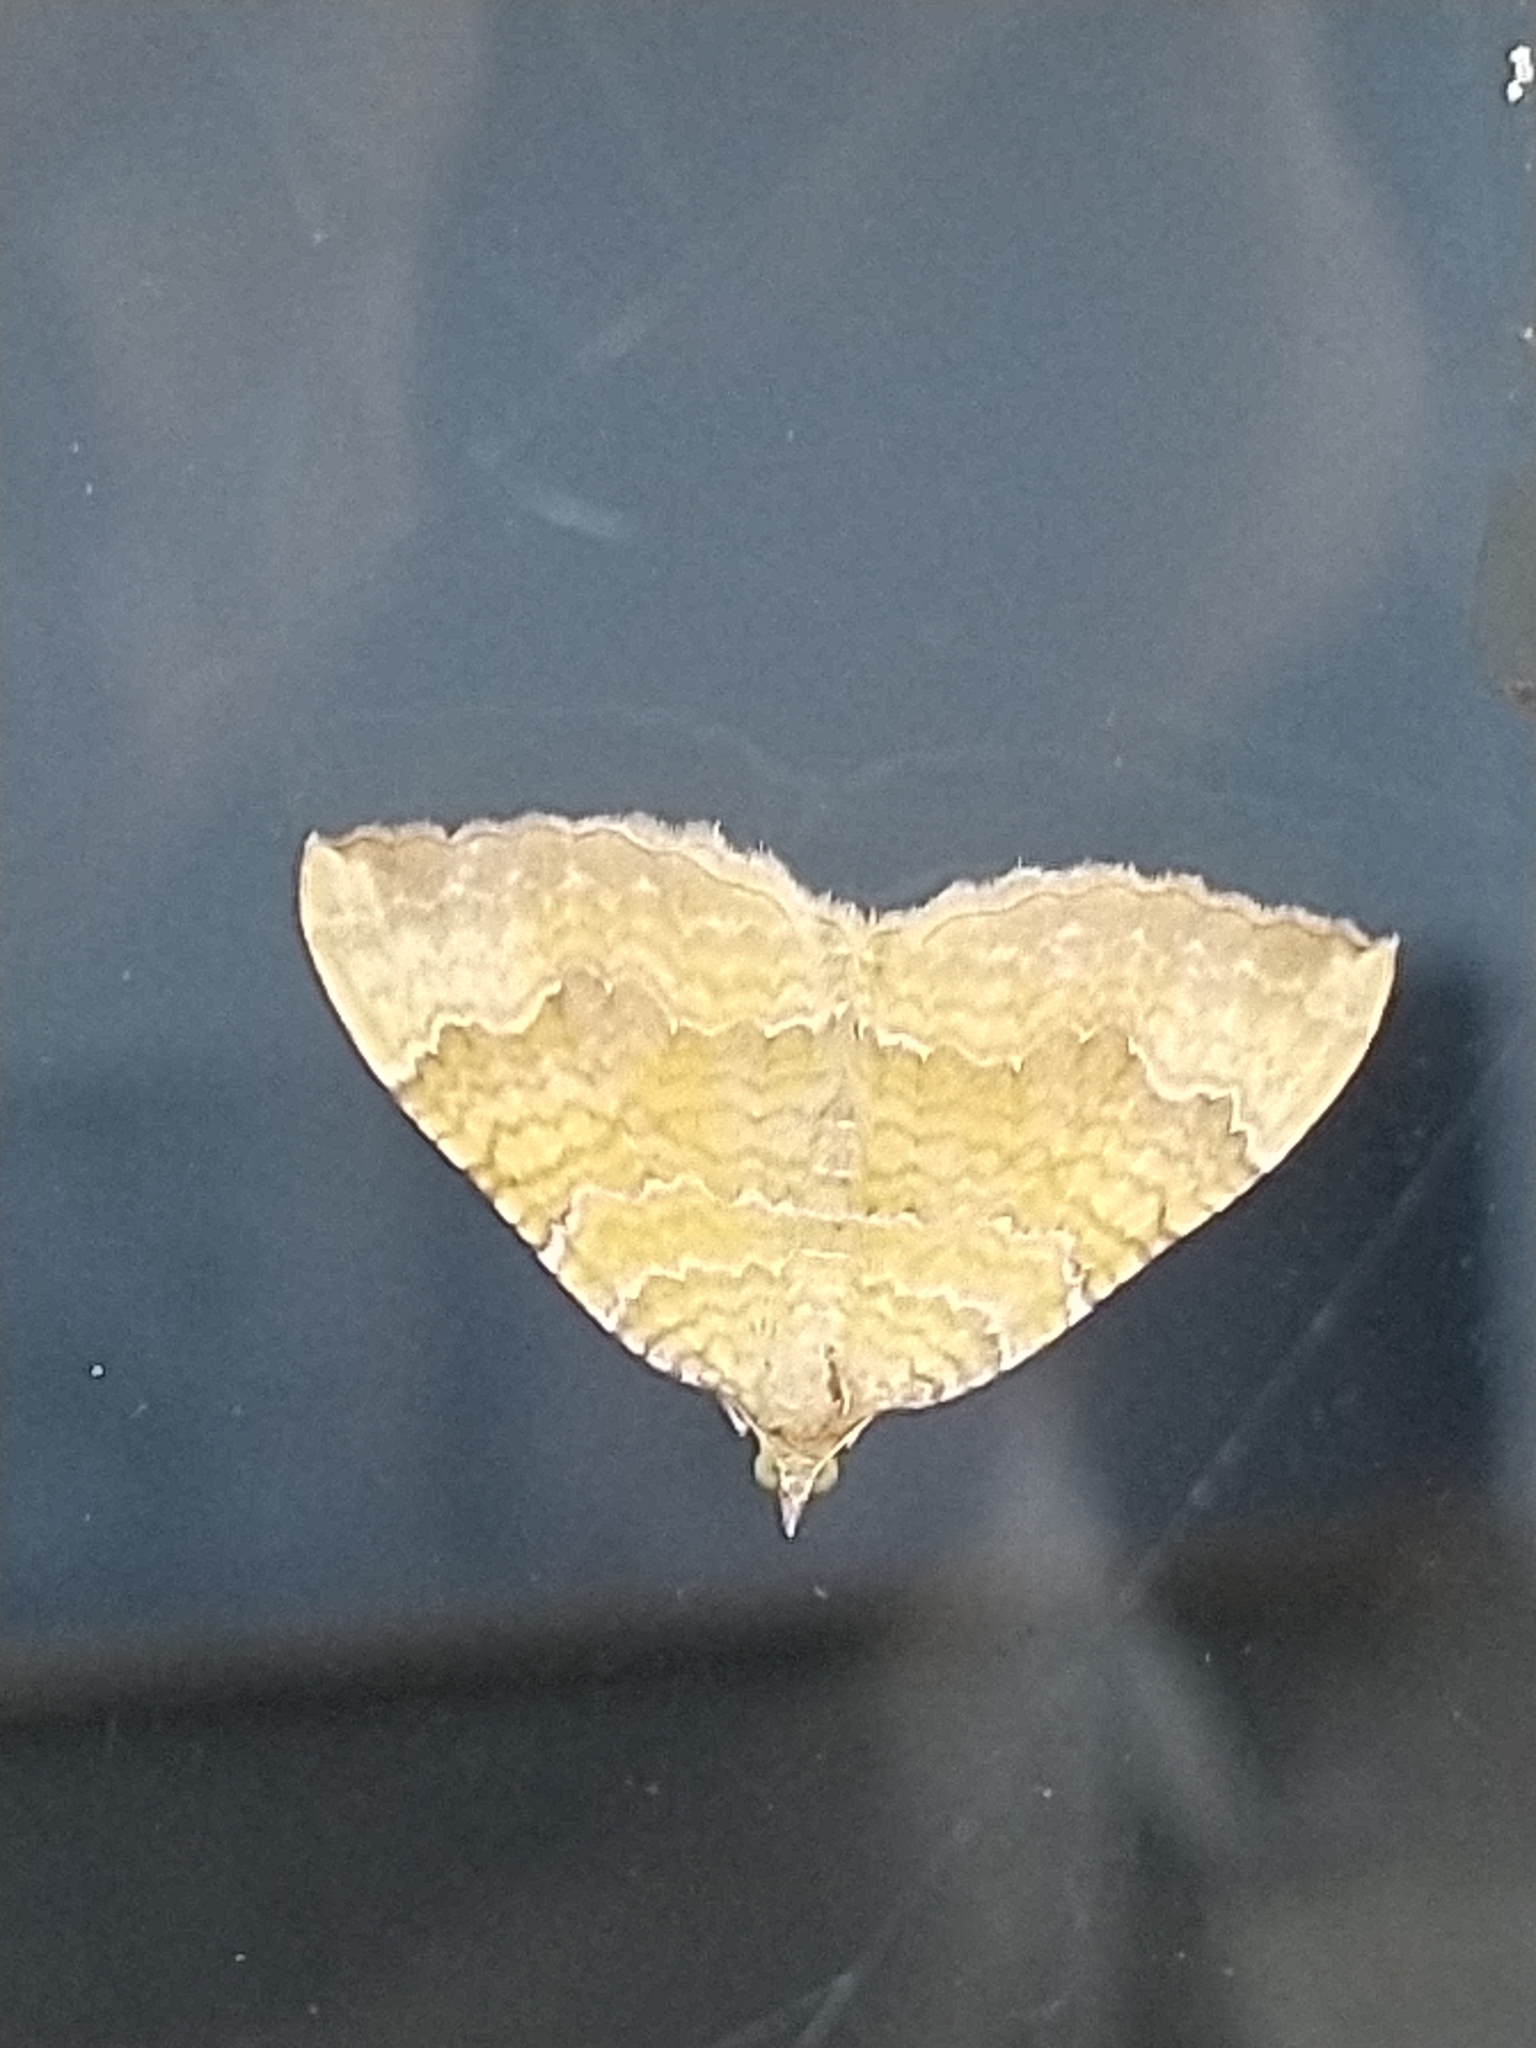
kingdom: Animalia
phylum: Arthropoda
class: Insecta
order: Lepidoptera
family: Geometridae
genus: Camptogramma
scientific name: Camptogramma bilineata
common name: Yellow shell
